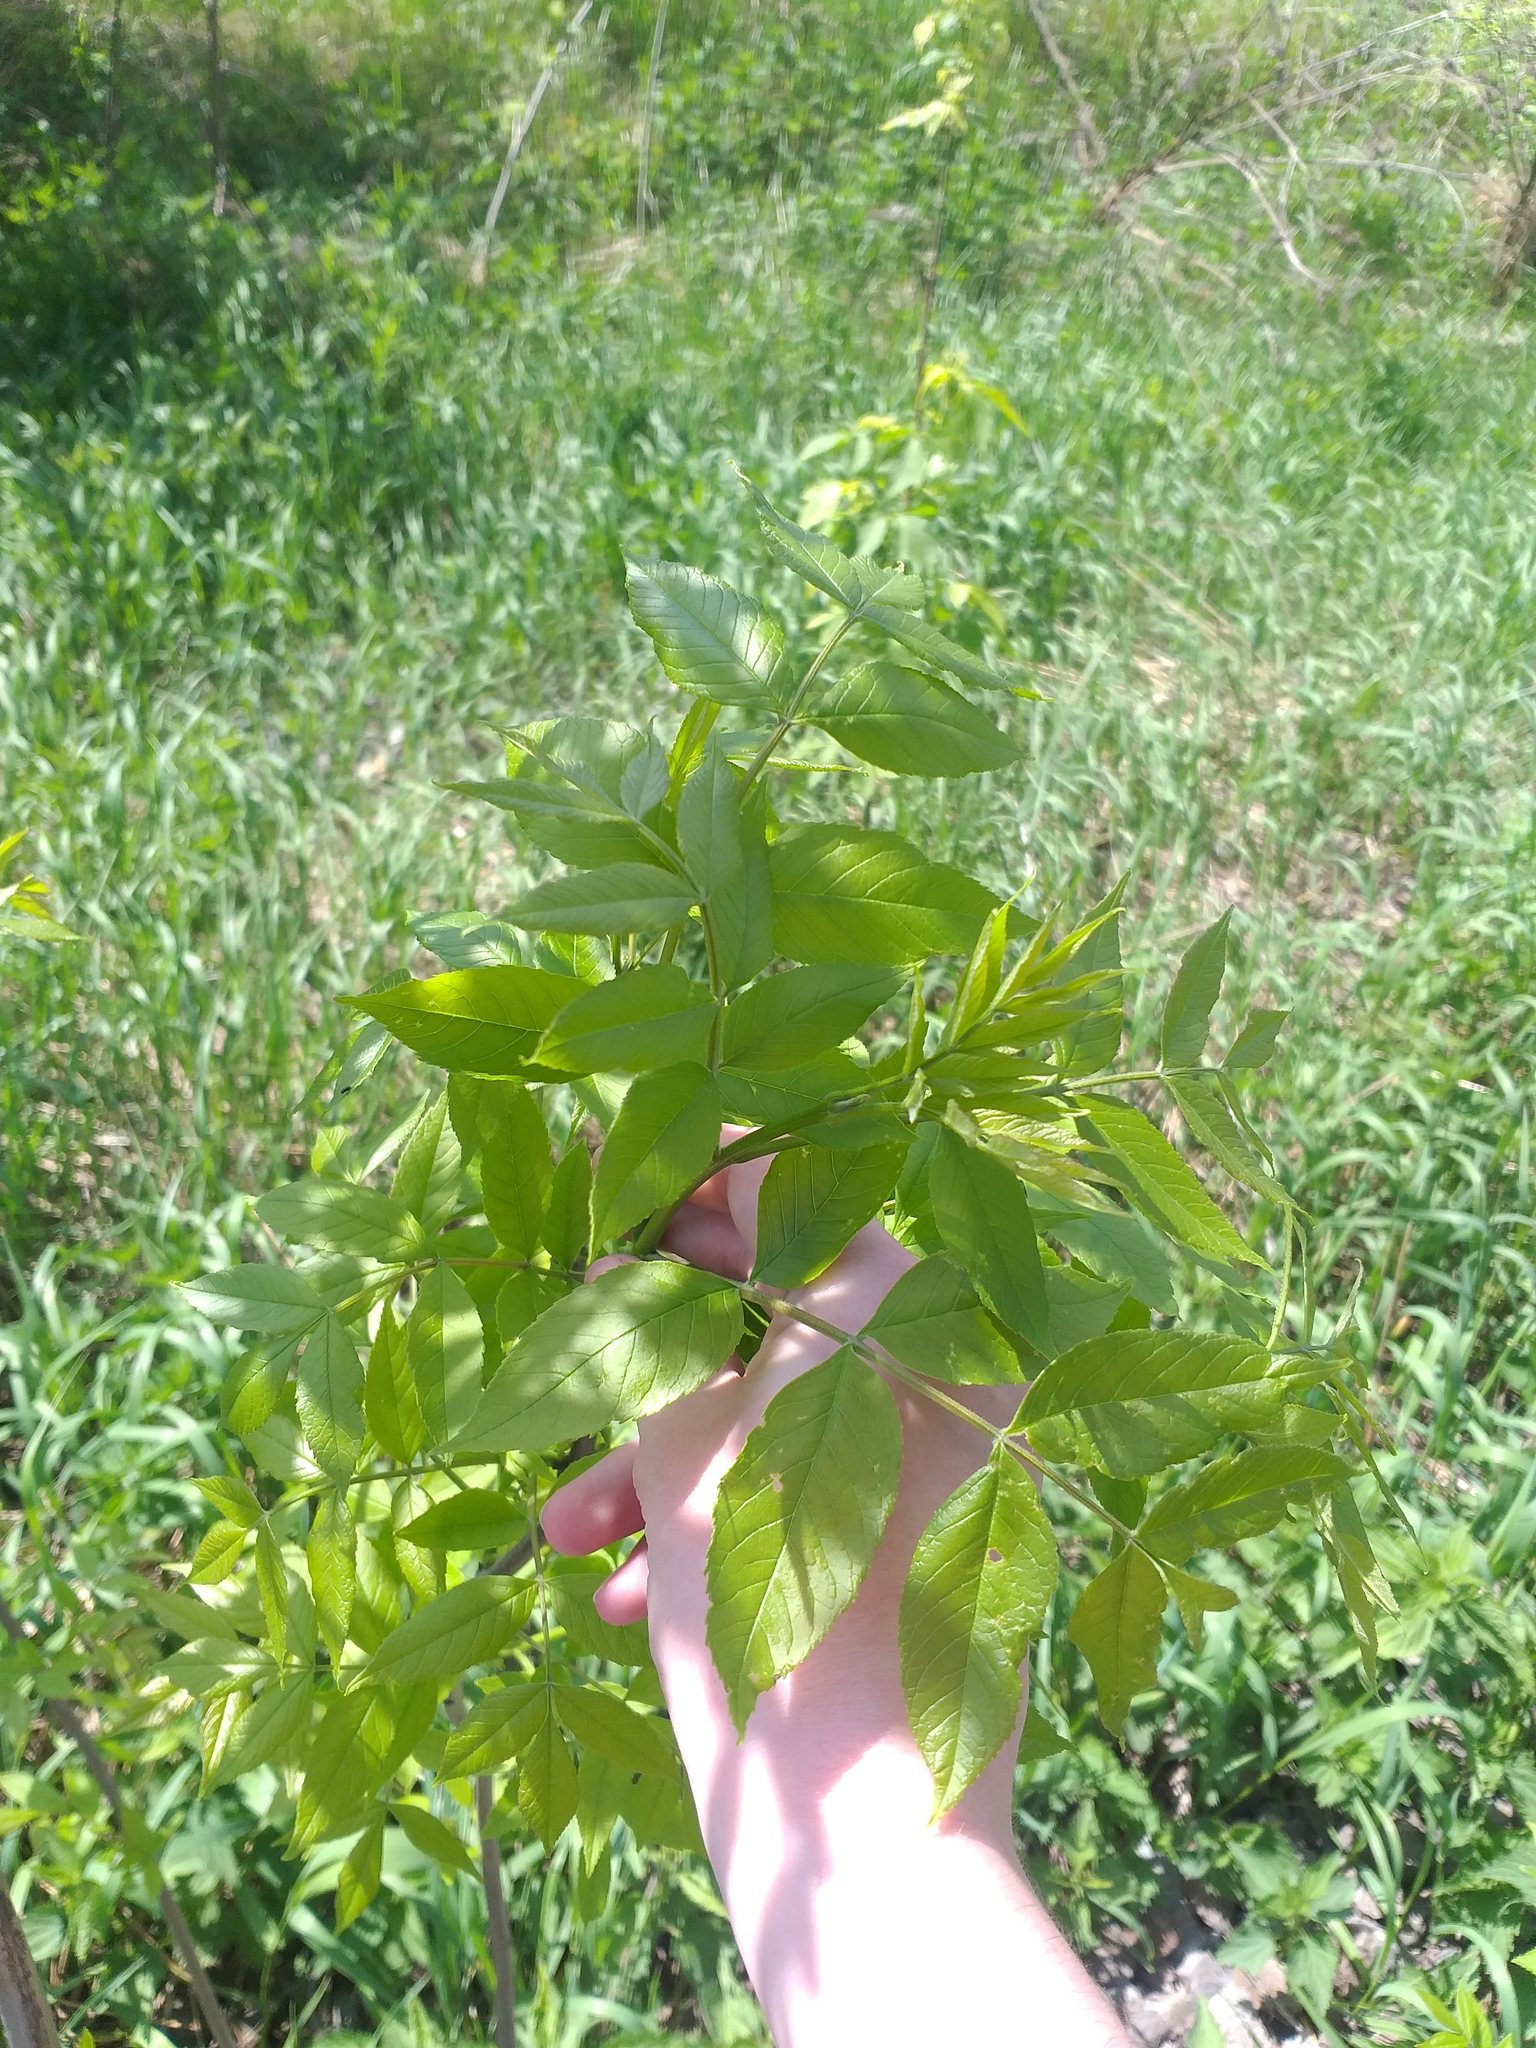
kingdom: Plantae
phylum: Tracheophyta
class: Magnoliopsida
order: Lamiales
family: Oleaceae
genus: Fraxinus
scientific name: Fraxinus excelsior
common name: European ash
